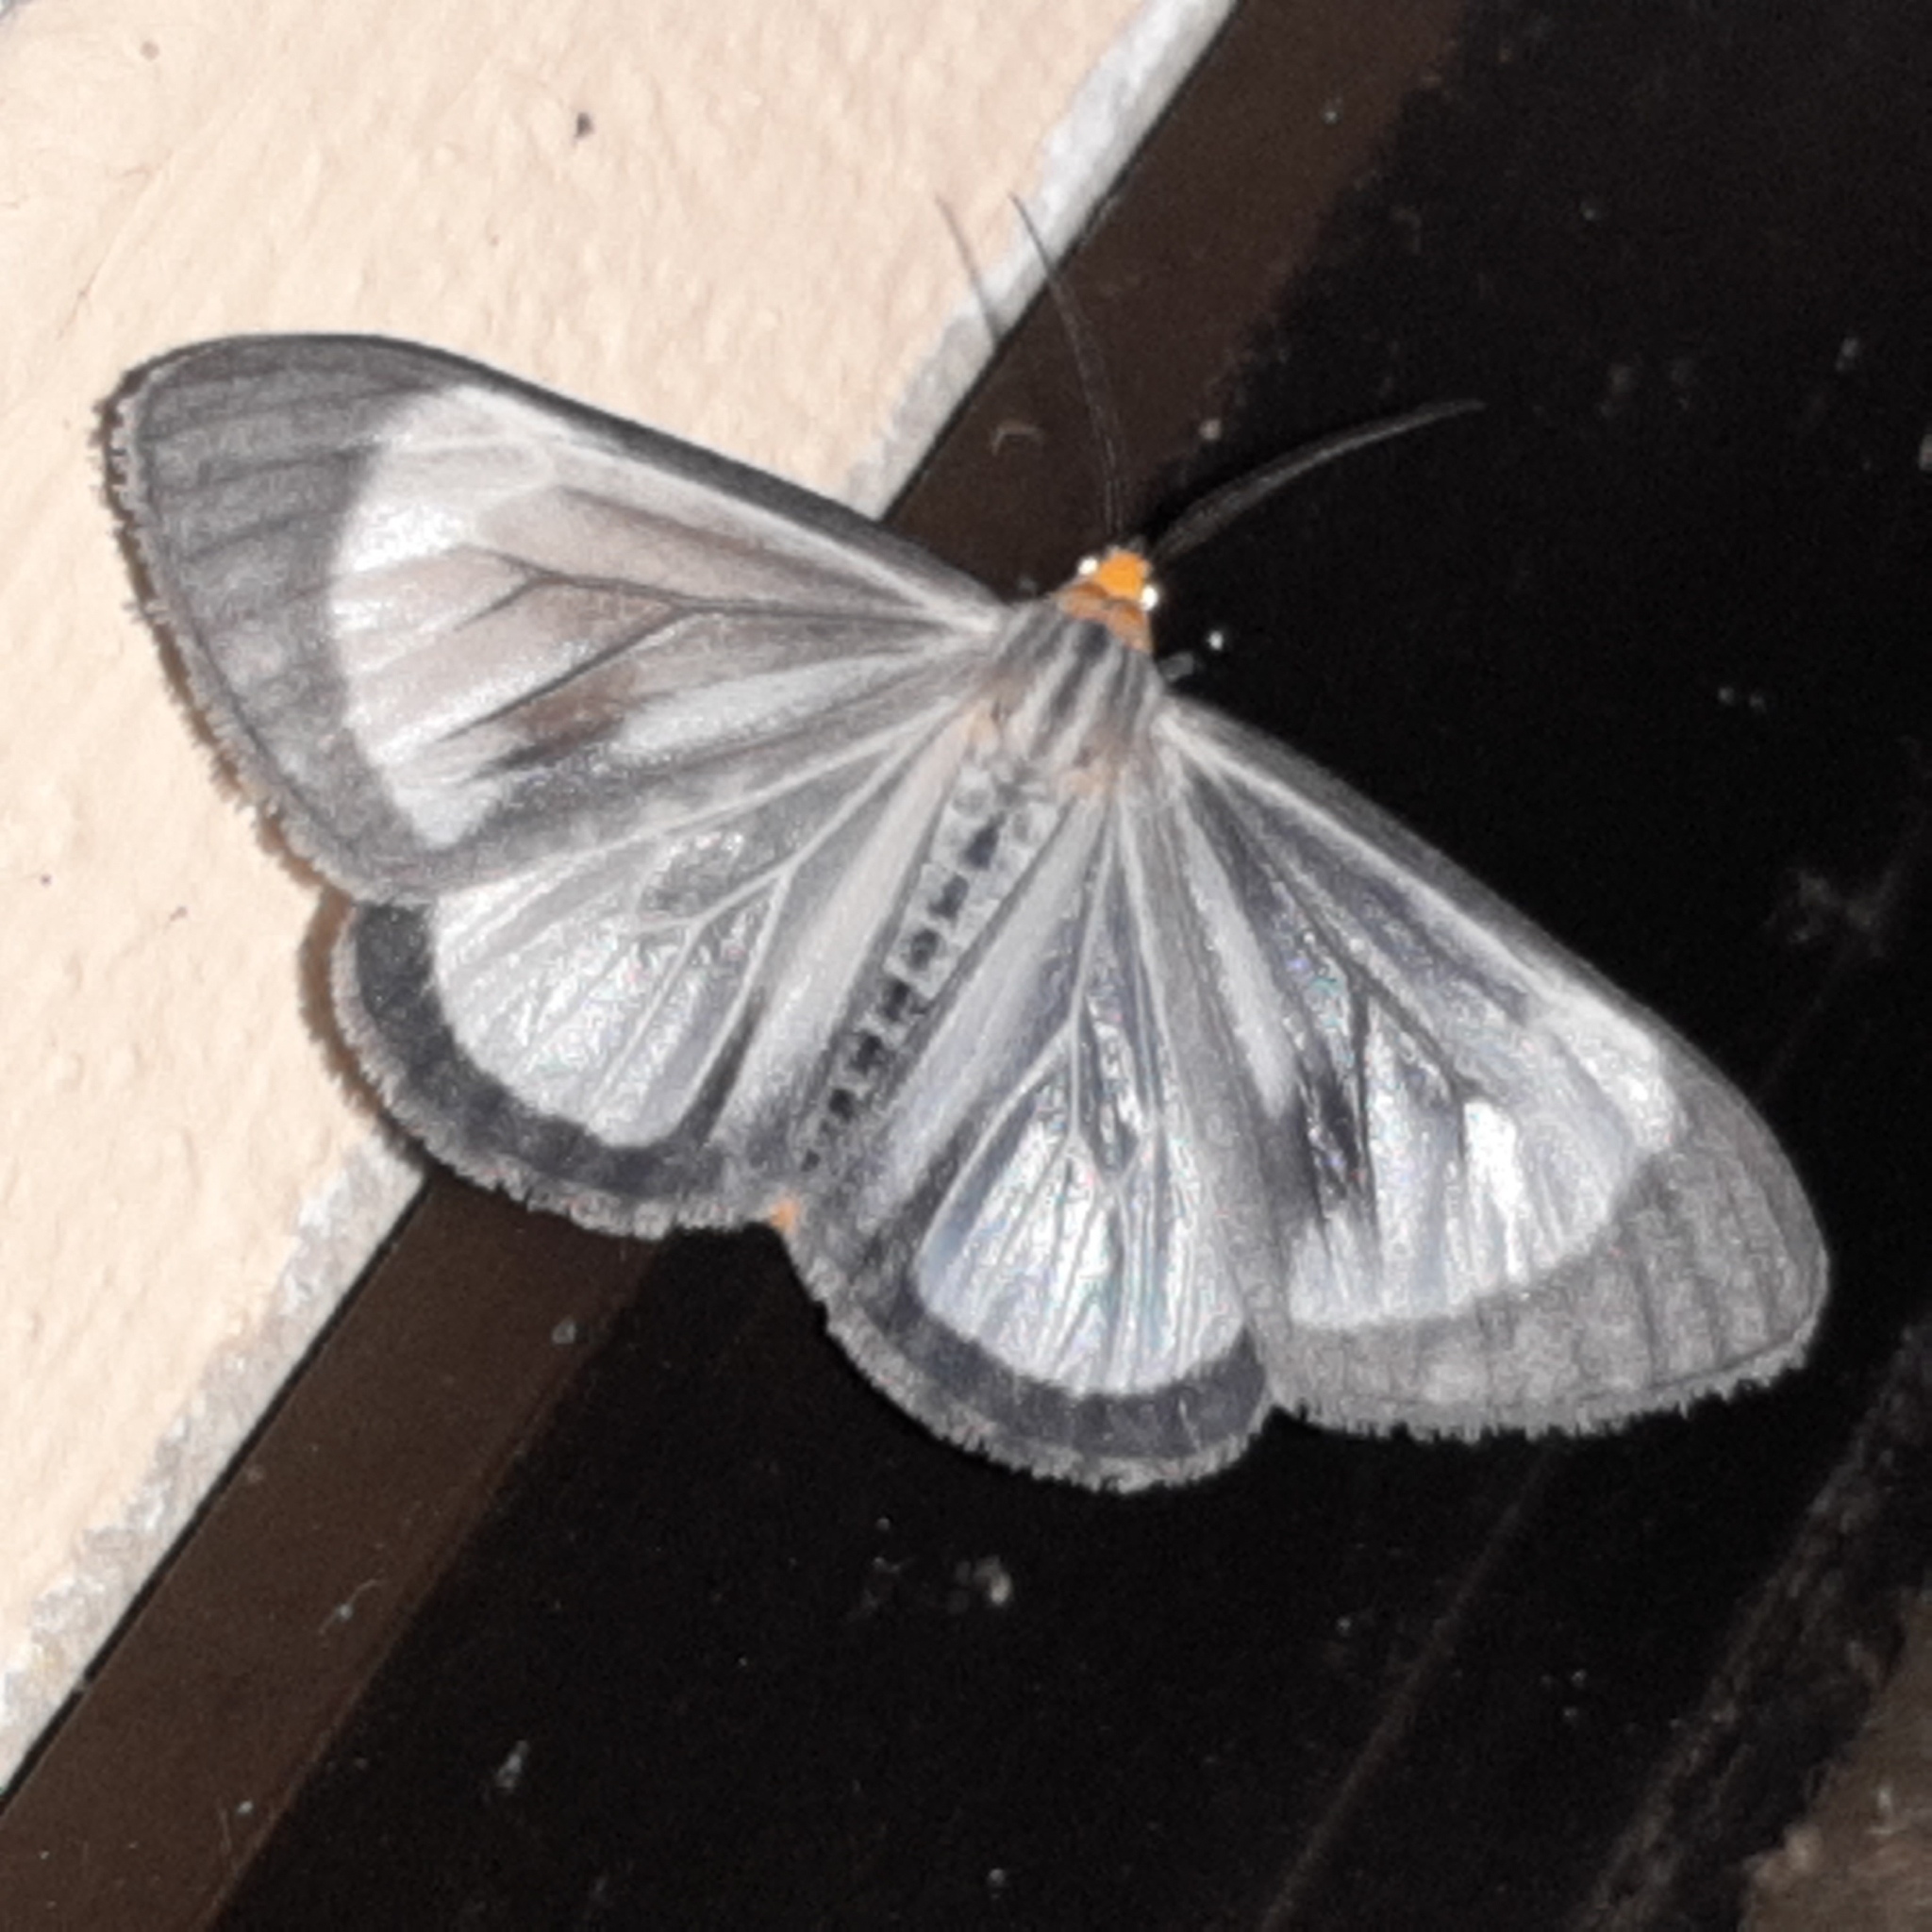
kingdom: Animalia
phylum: Arthropoda
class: Insecta
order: Lepidoptera
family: Erebidae
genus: Xenosoma
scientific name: Xenosoma geometrina
